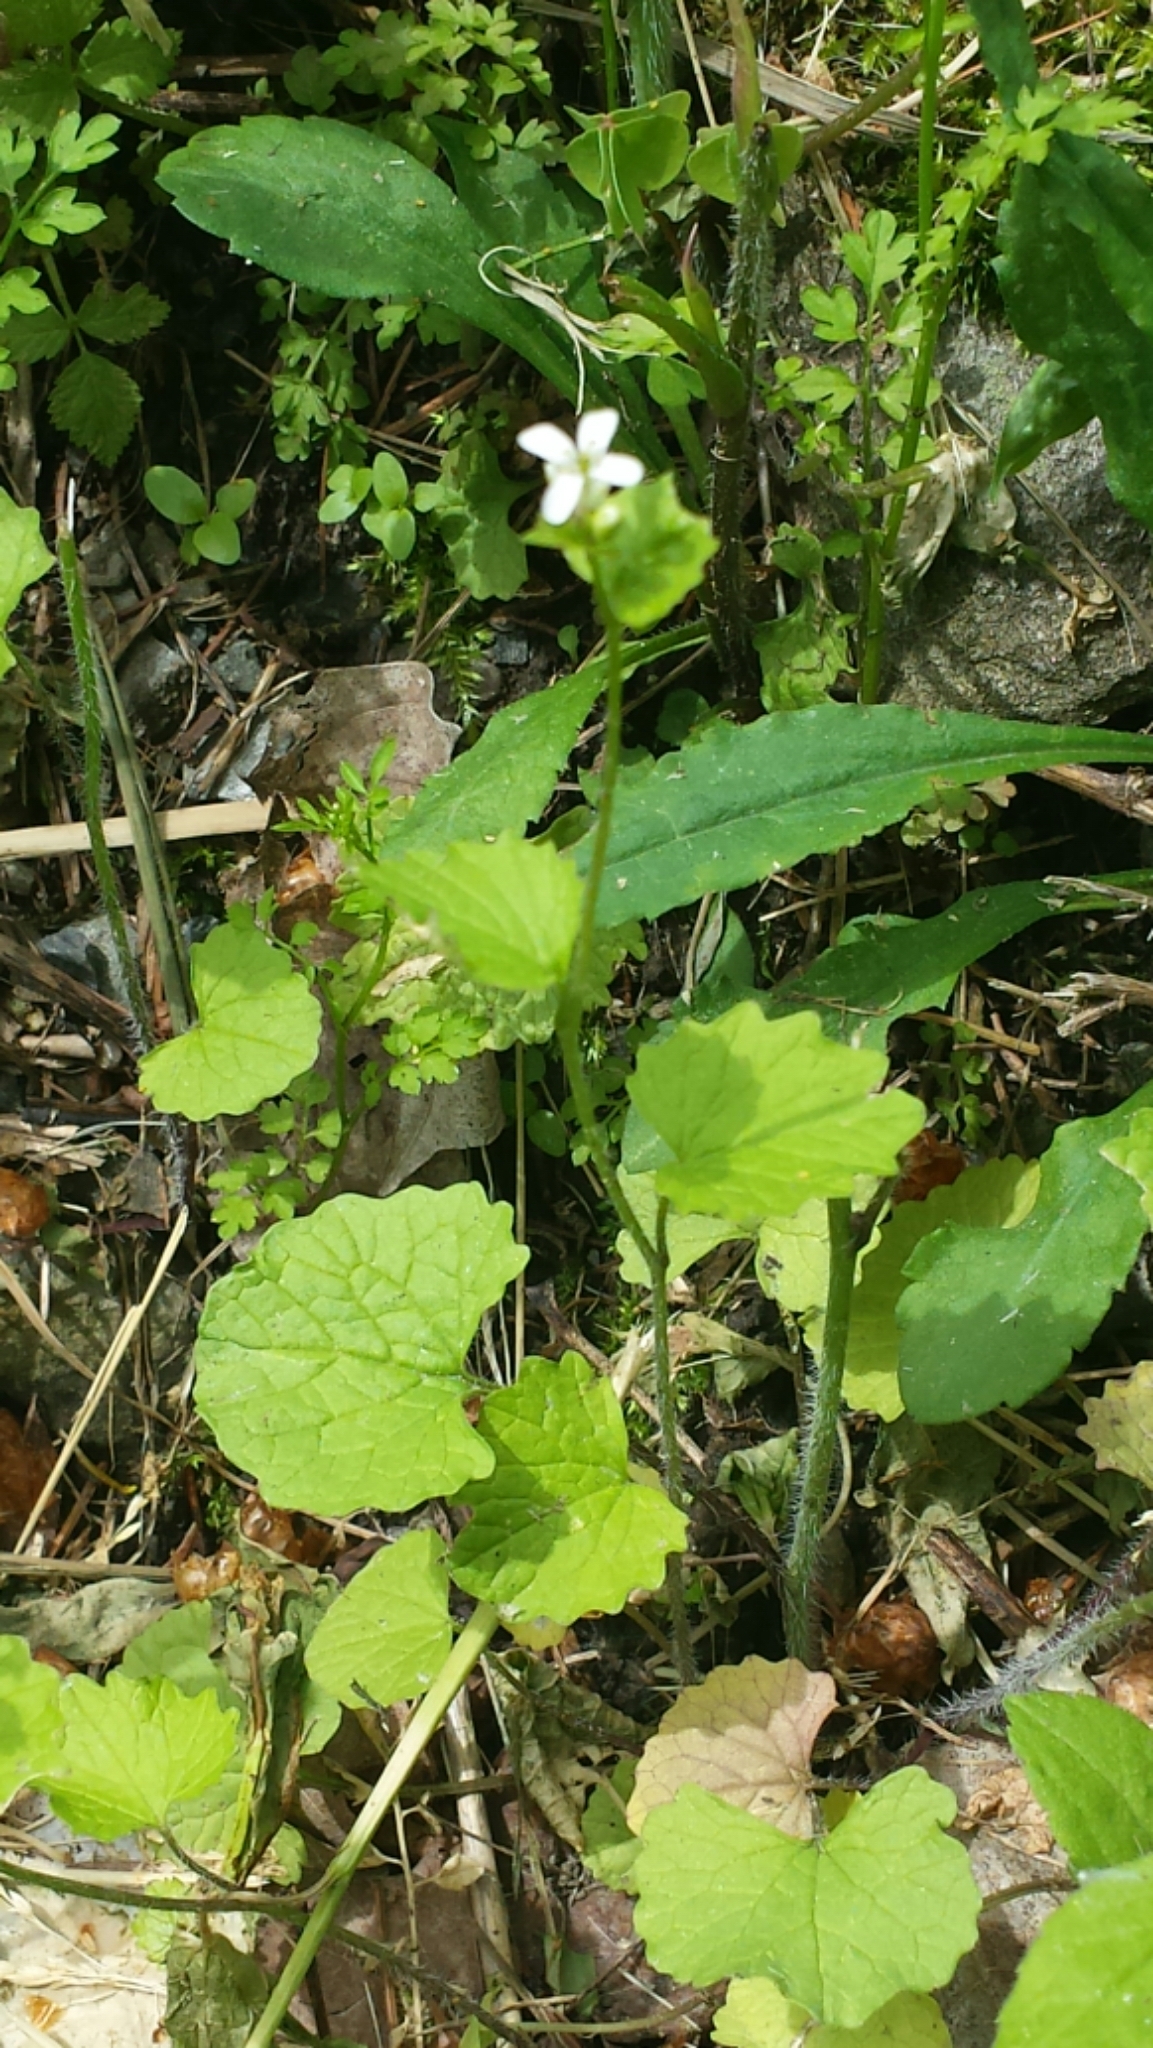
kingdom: Plantae
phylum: Tracheophyta
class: Magnoliopsida
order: Brassicales
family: Brassicaceae
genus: Alliaria
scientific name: Alliaria petiolata
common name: Garlic mustard
